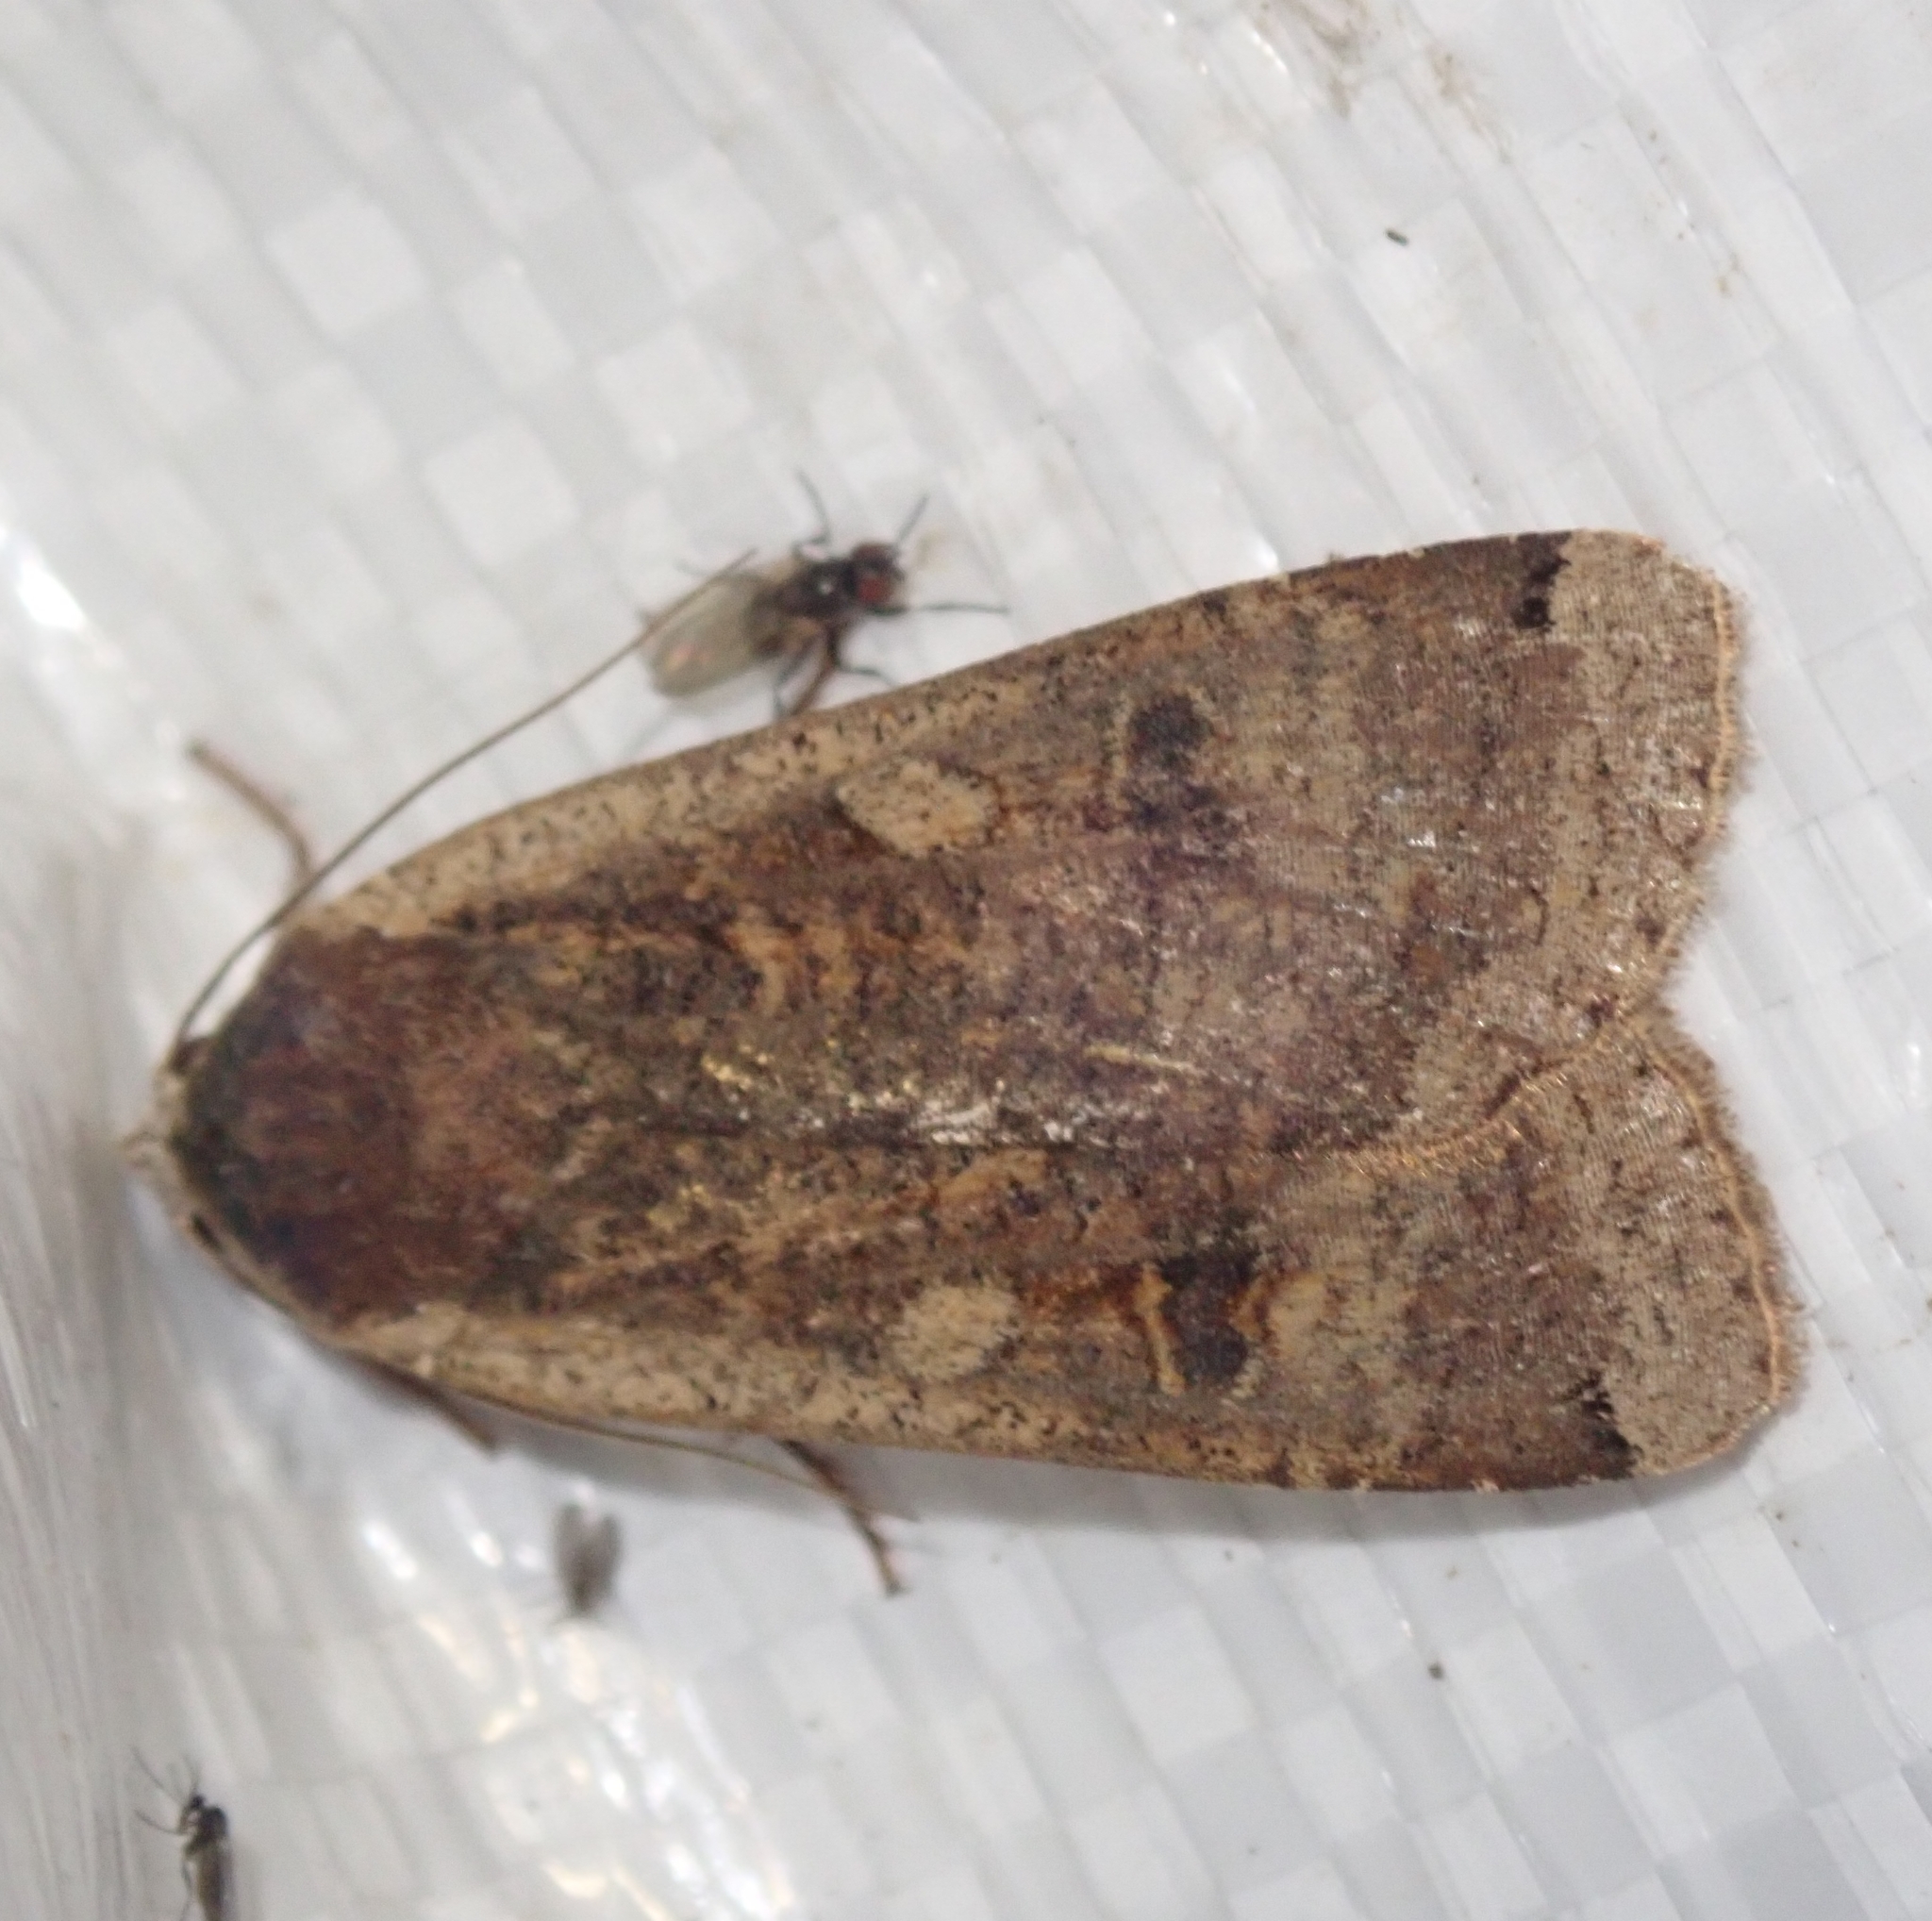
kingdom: Animalia
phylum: Arthropoda
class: Insecta
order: Lepidoptera
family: Noctuidae
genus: Noctua
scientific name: Noctua pronuba
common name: Large yellow underwing
